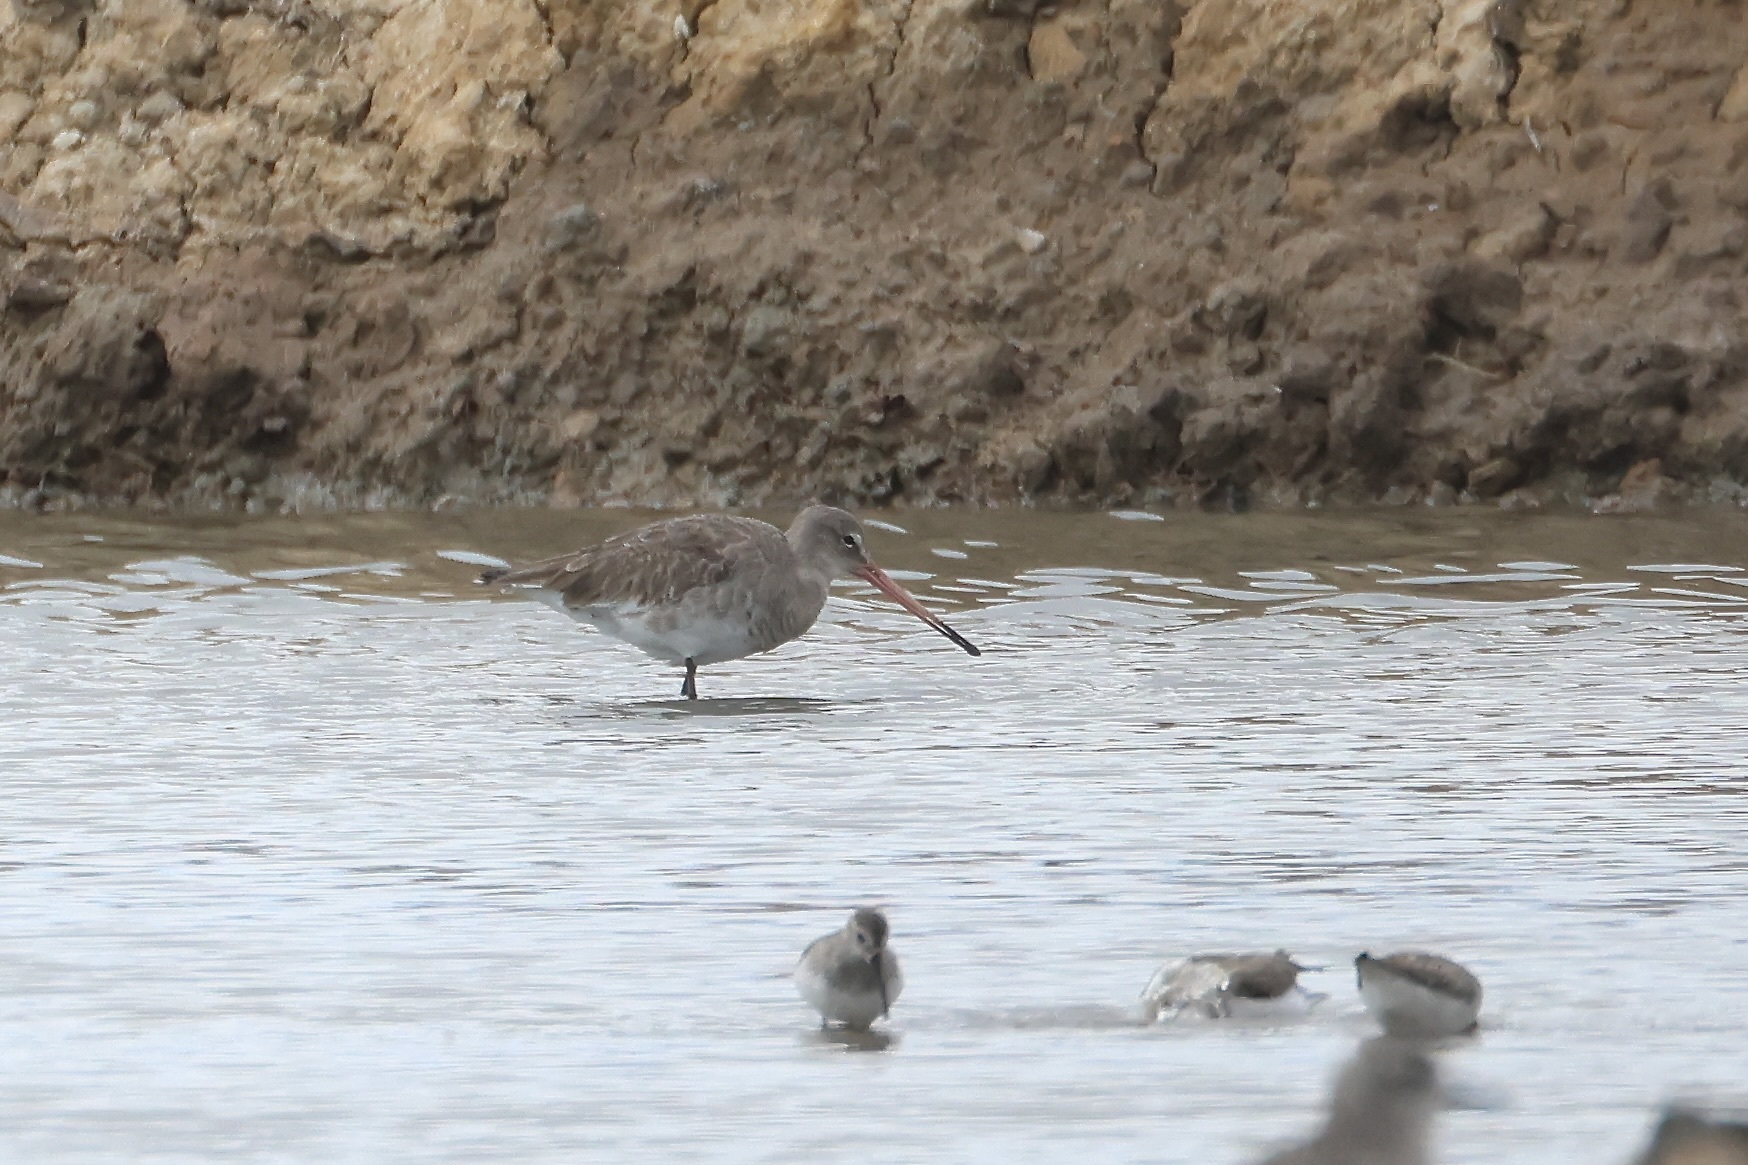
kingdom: Animalia
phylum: Chordata
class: Aves
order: Charadriiformes
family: Scolopacidae
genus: Limosa
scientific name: Limosa limosa
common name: Black-tailed godwit
